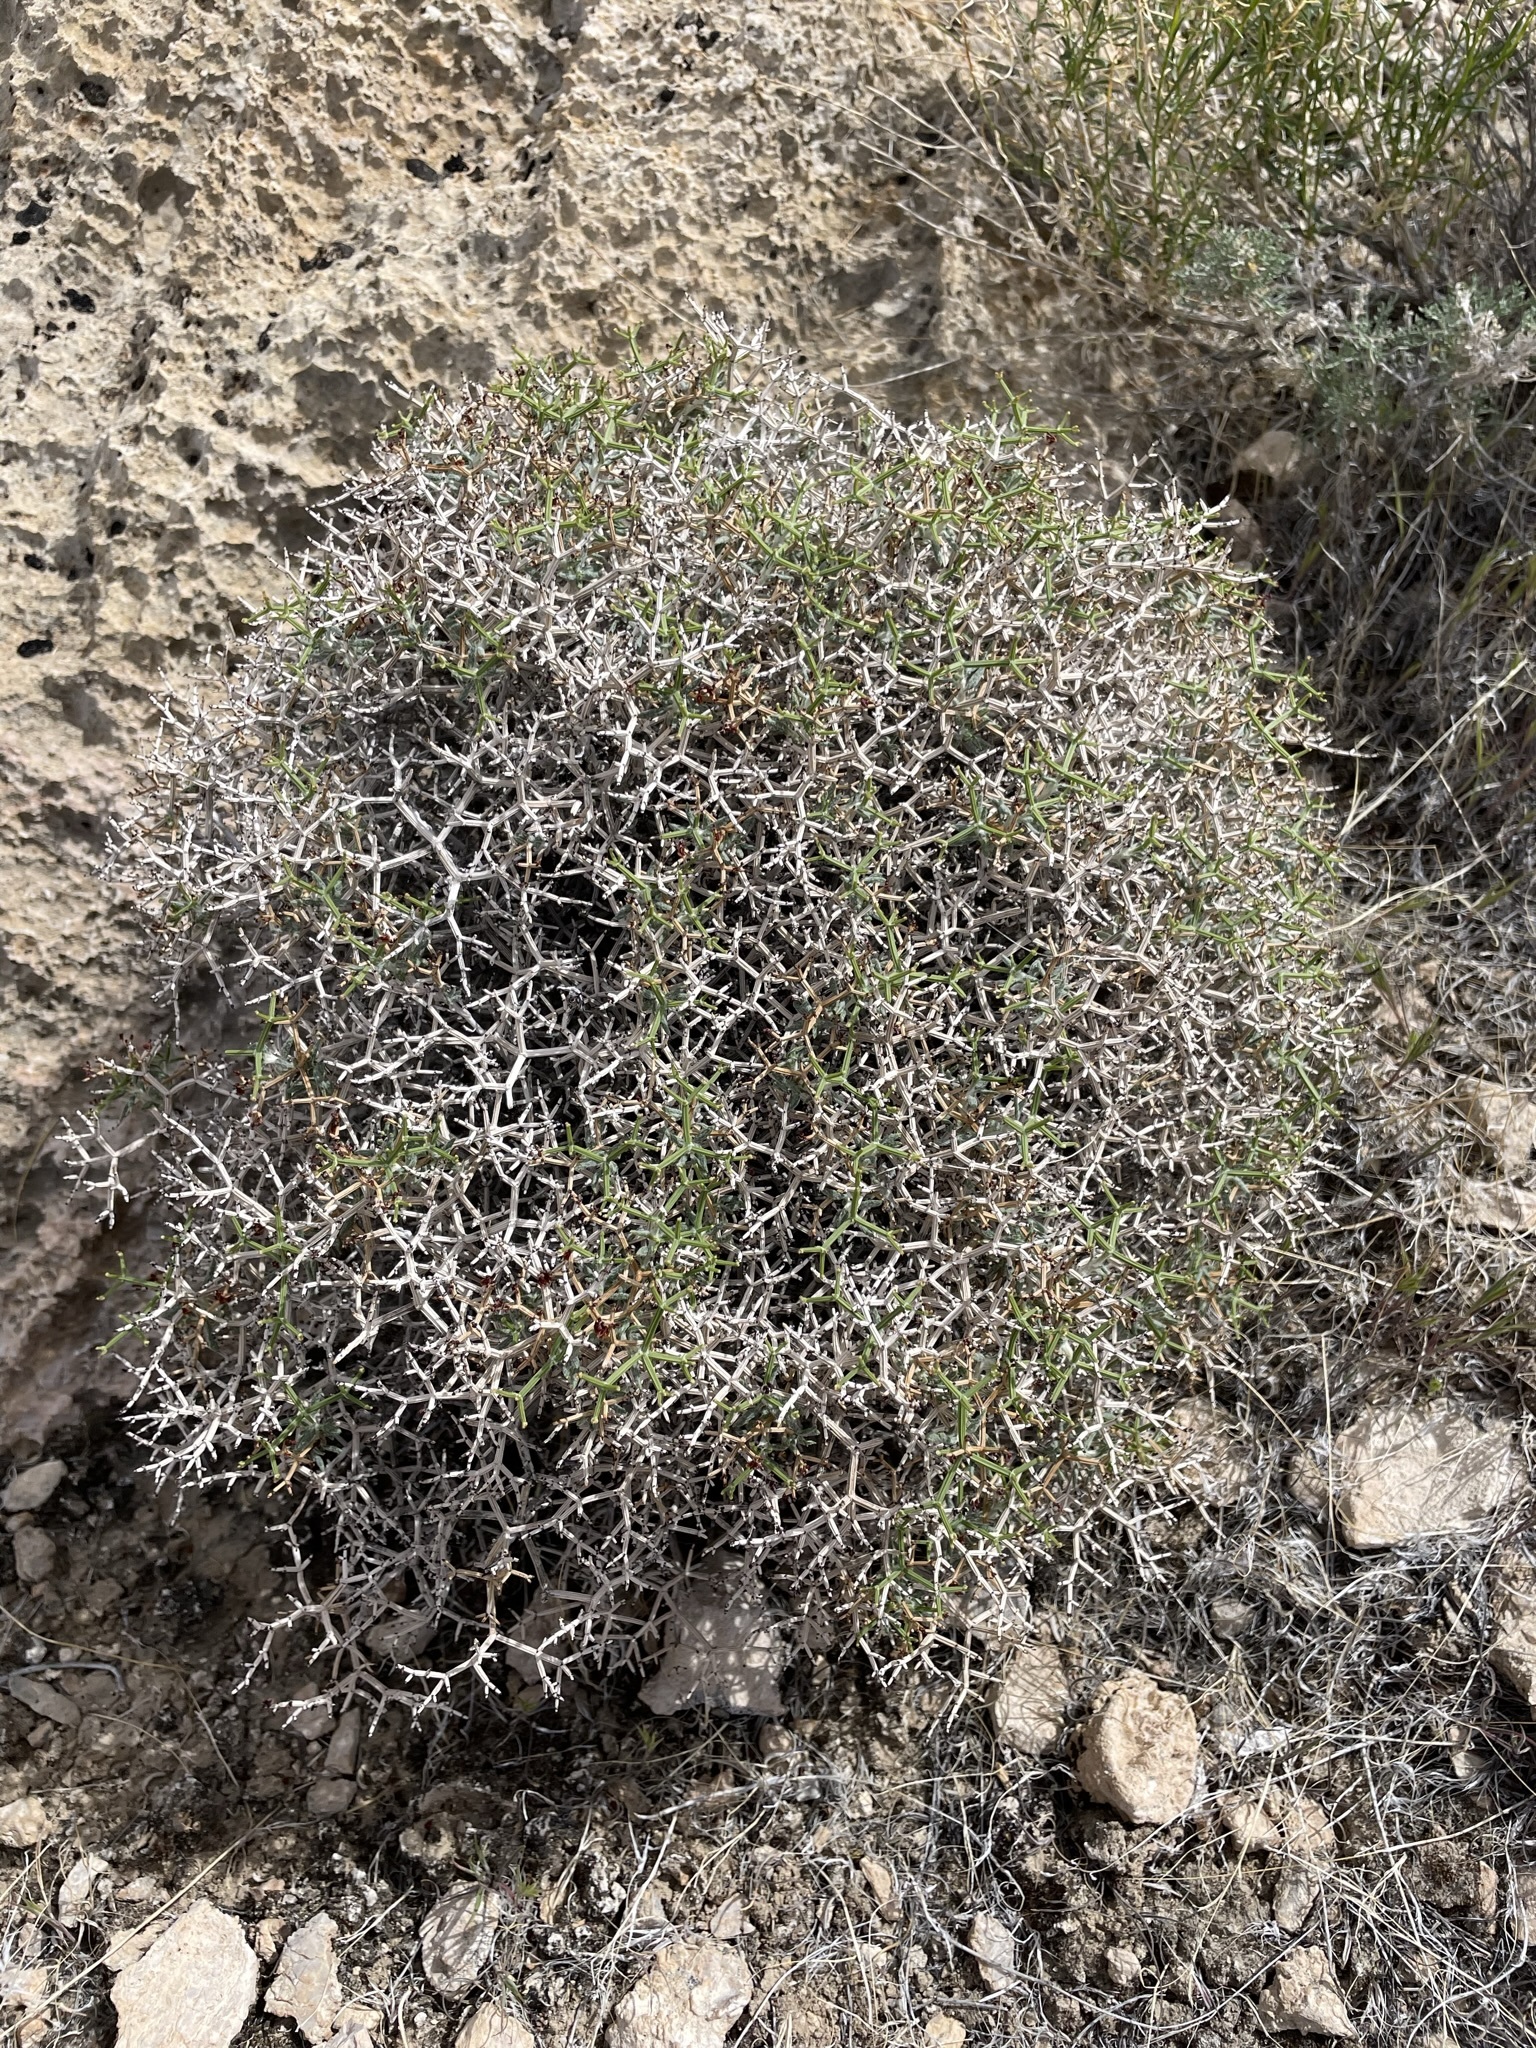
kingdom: Plantae
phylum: Tracheophyta
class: Magnoliopsida
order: Caryophyllales
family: Polygonaceae
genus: Eriogonum
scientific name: Eriogonum heermannii
